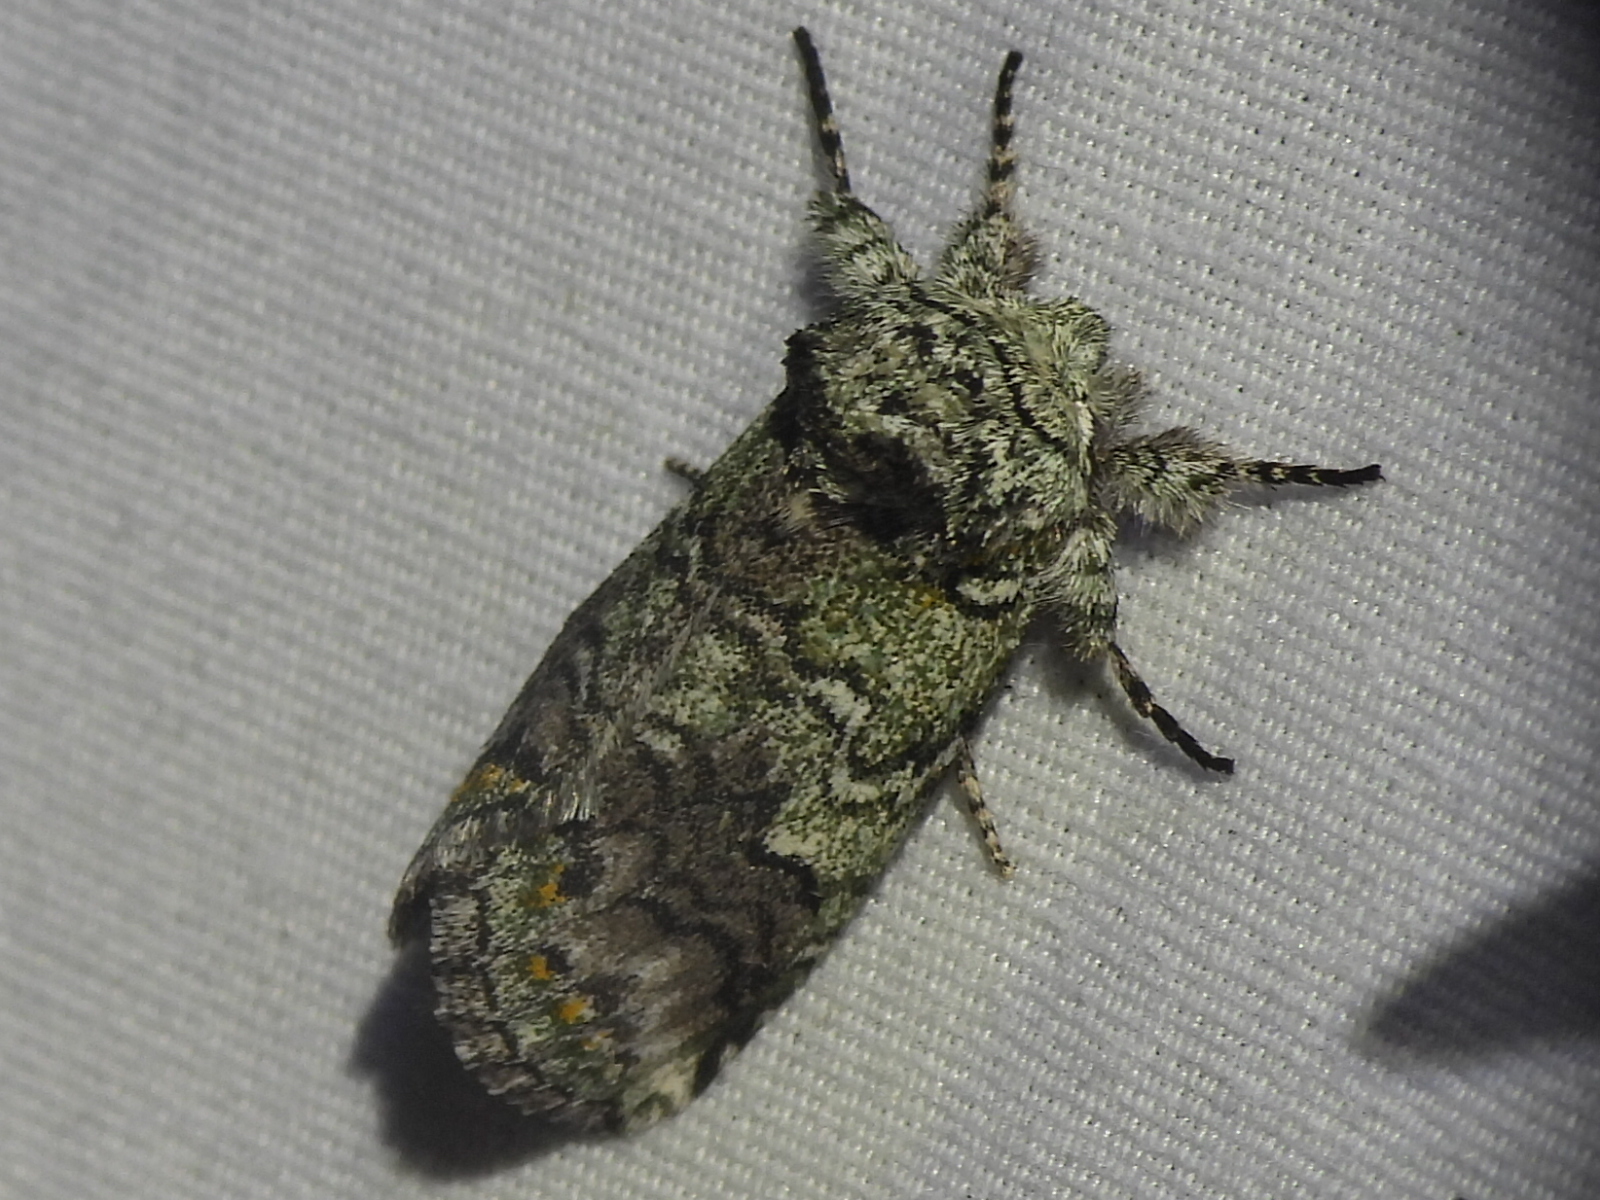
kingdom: Animalia
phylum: Arthropoda
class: Insecta
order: Lepidoptera
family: Notodontidae
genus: Litodonta
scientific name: Litodonta hydromeli
